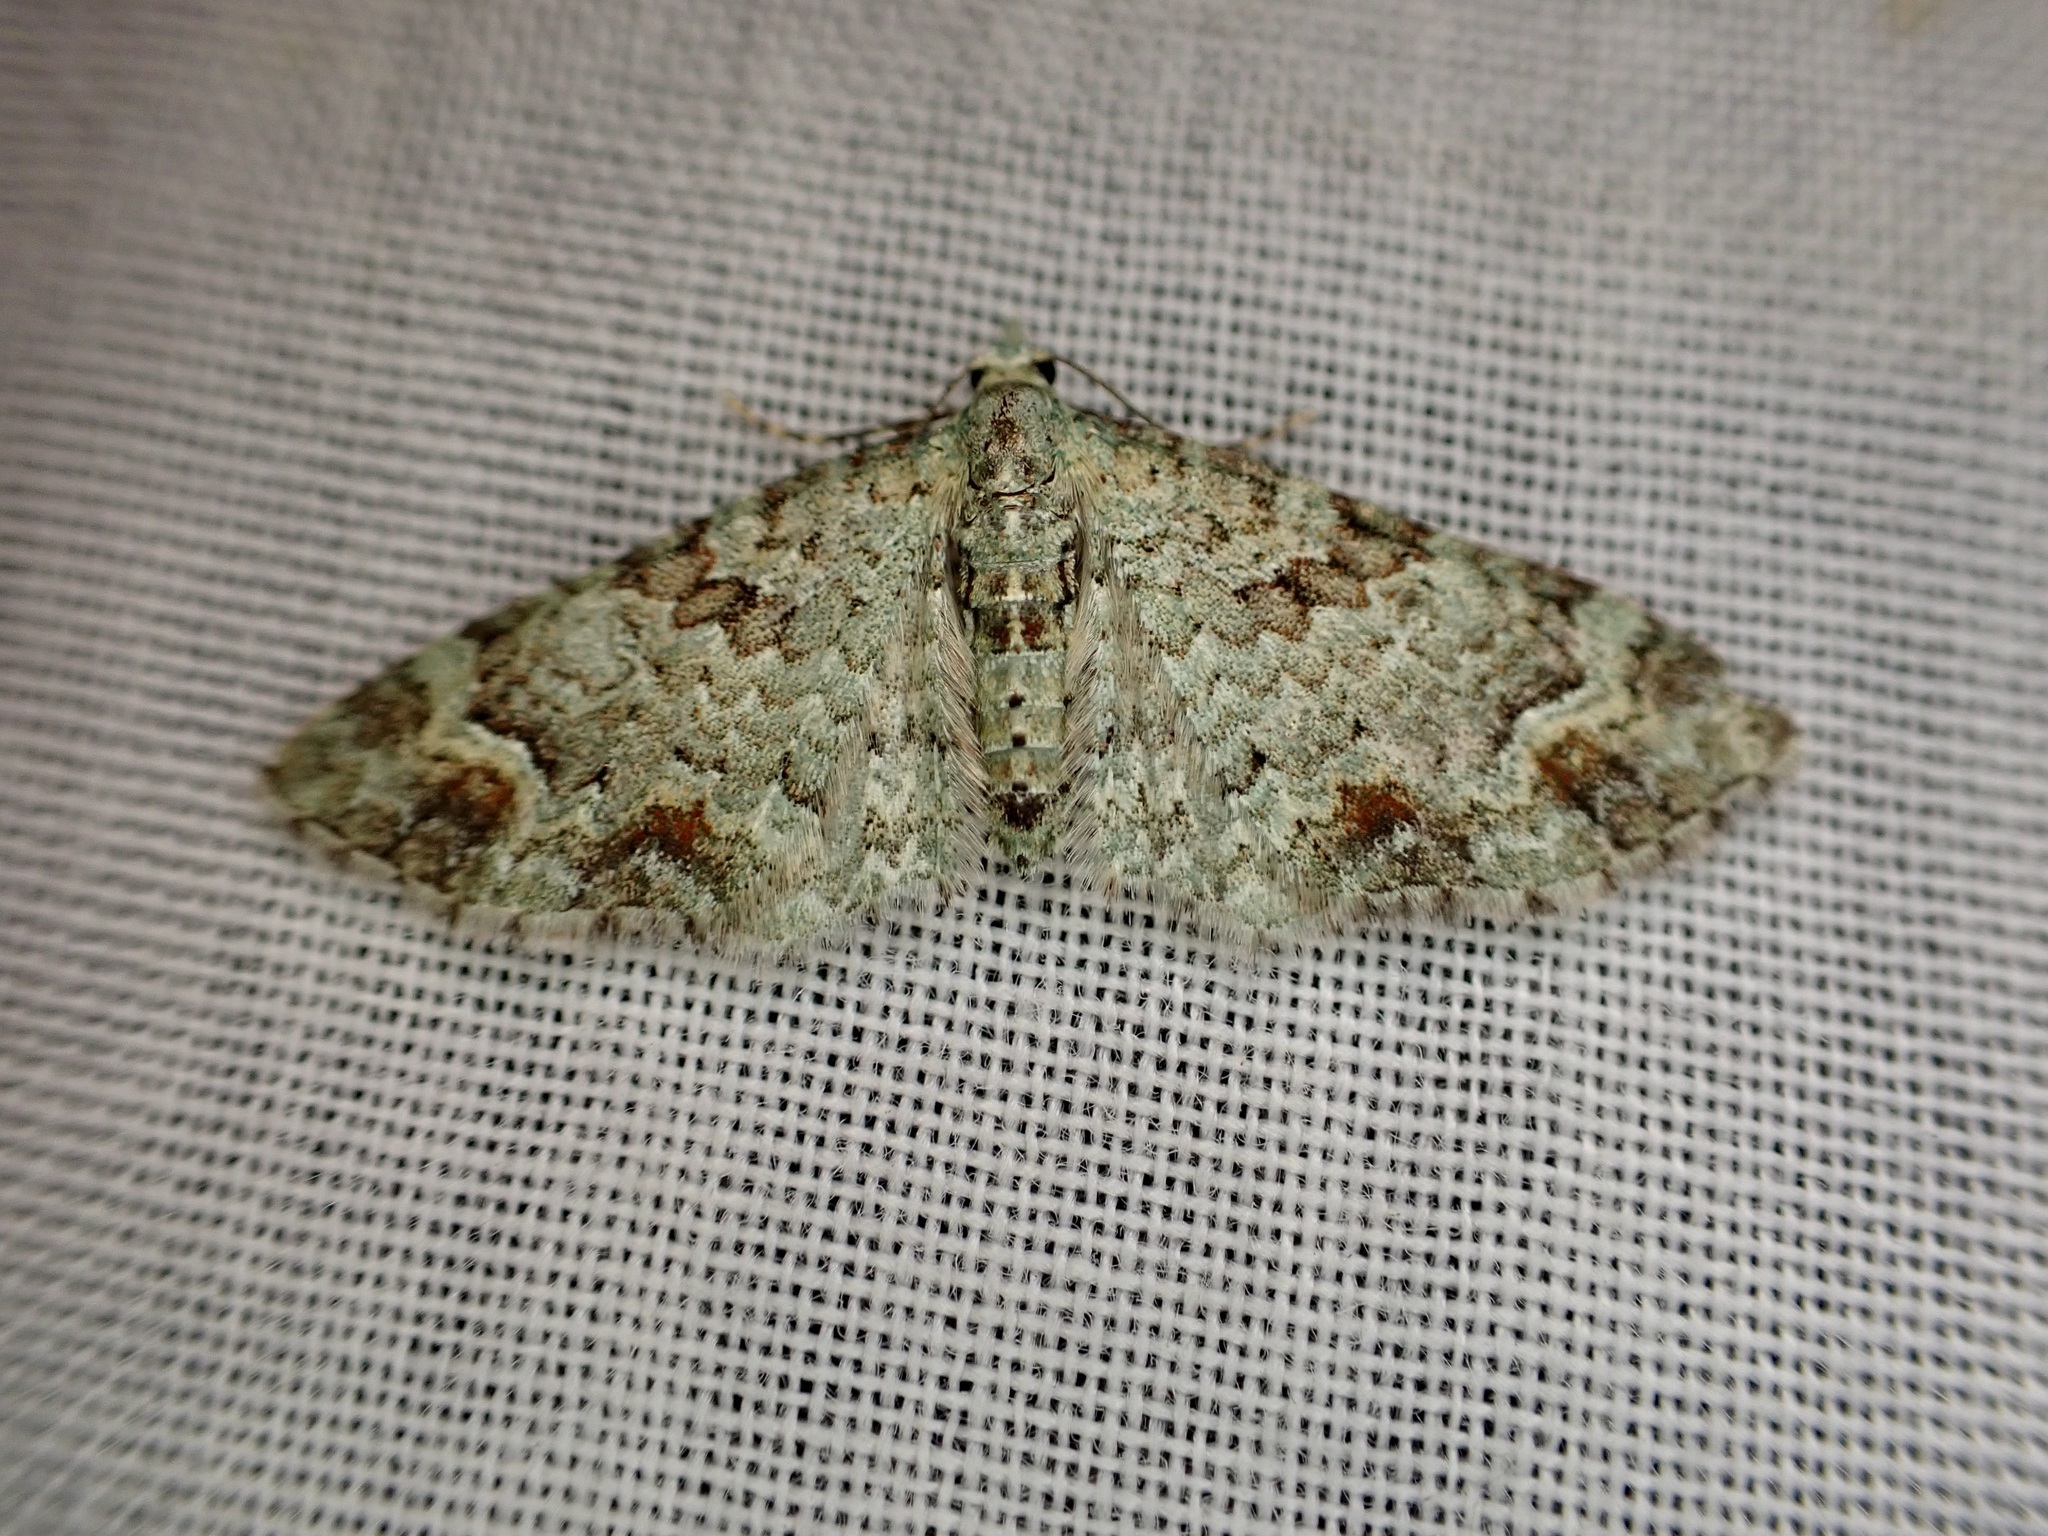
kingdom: Animalia
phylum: Arthropoda
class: Insecta
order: Lepidoptera
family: Geometridae
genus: Idaea
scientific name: Idaea mutanda
